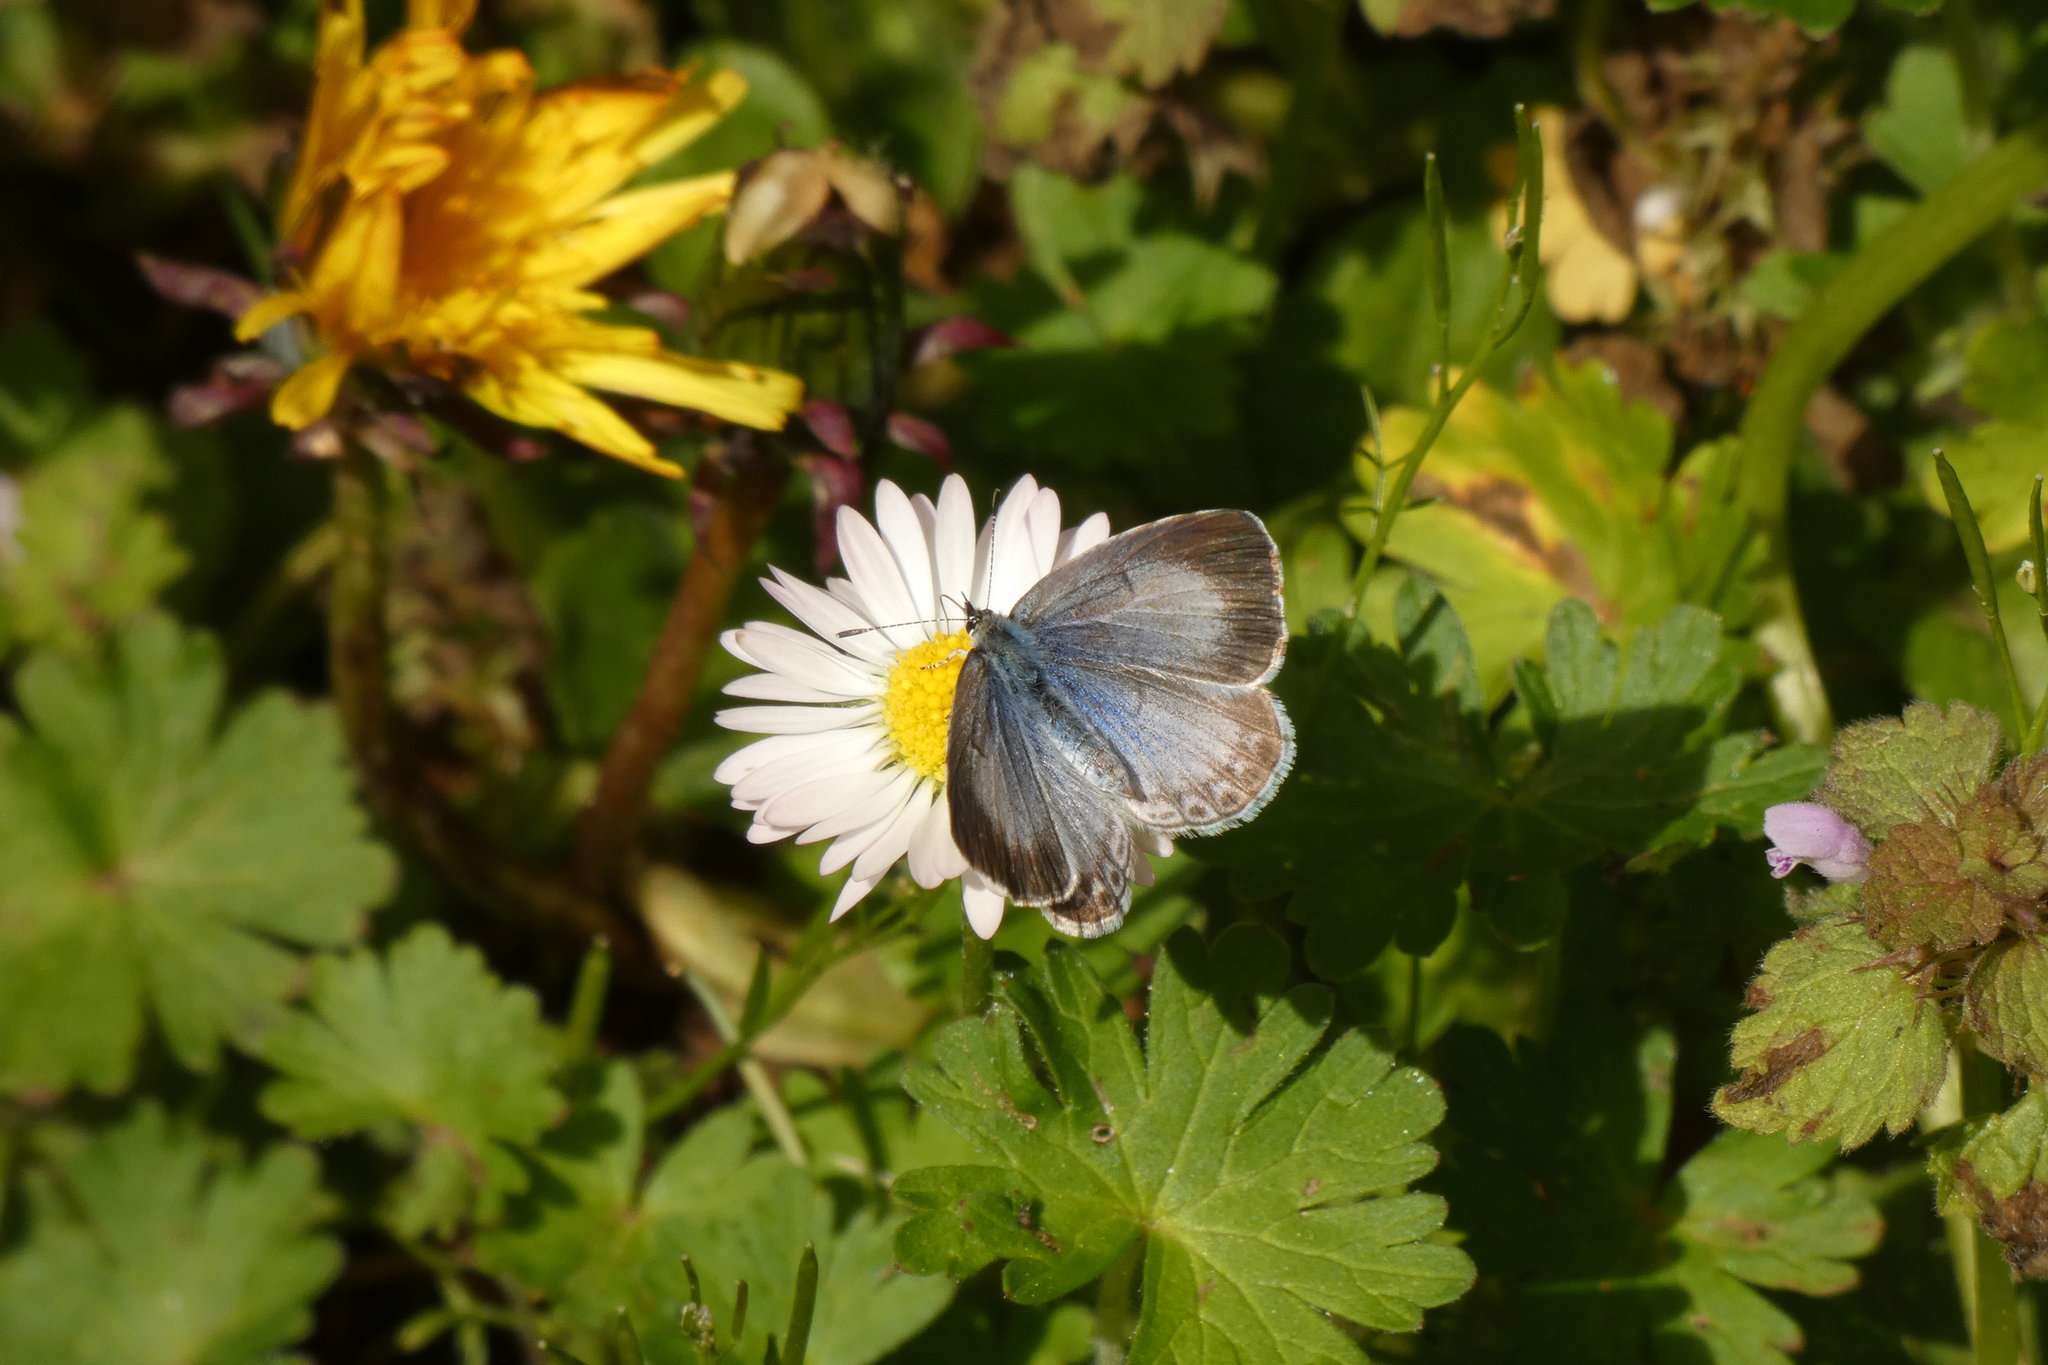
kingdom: Animalia
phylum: Arthropoda
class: Insecta
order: Lepidoptera
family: Lycaenidae
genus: Celastrina
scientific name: Celastrina ladon
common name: Spring azure
